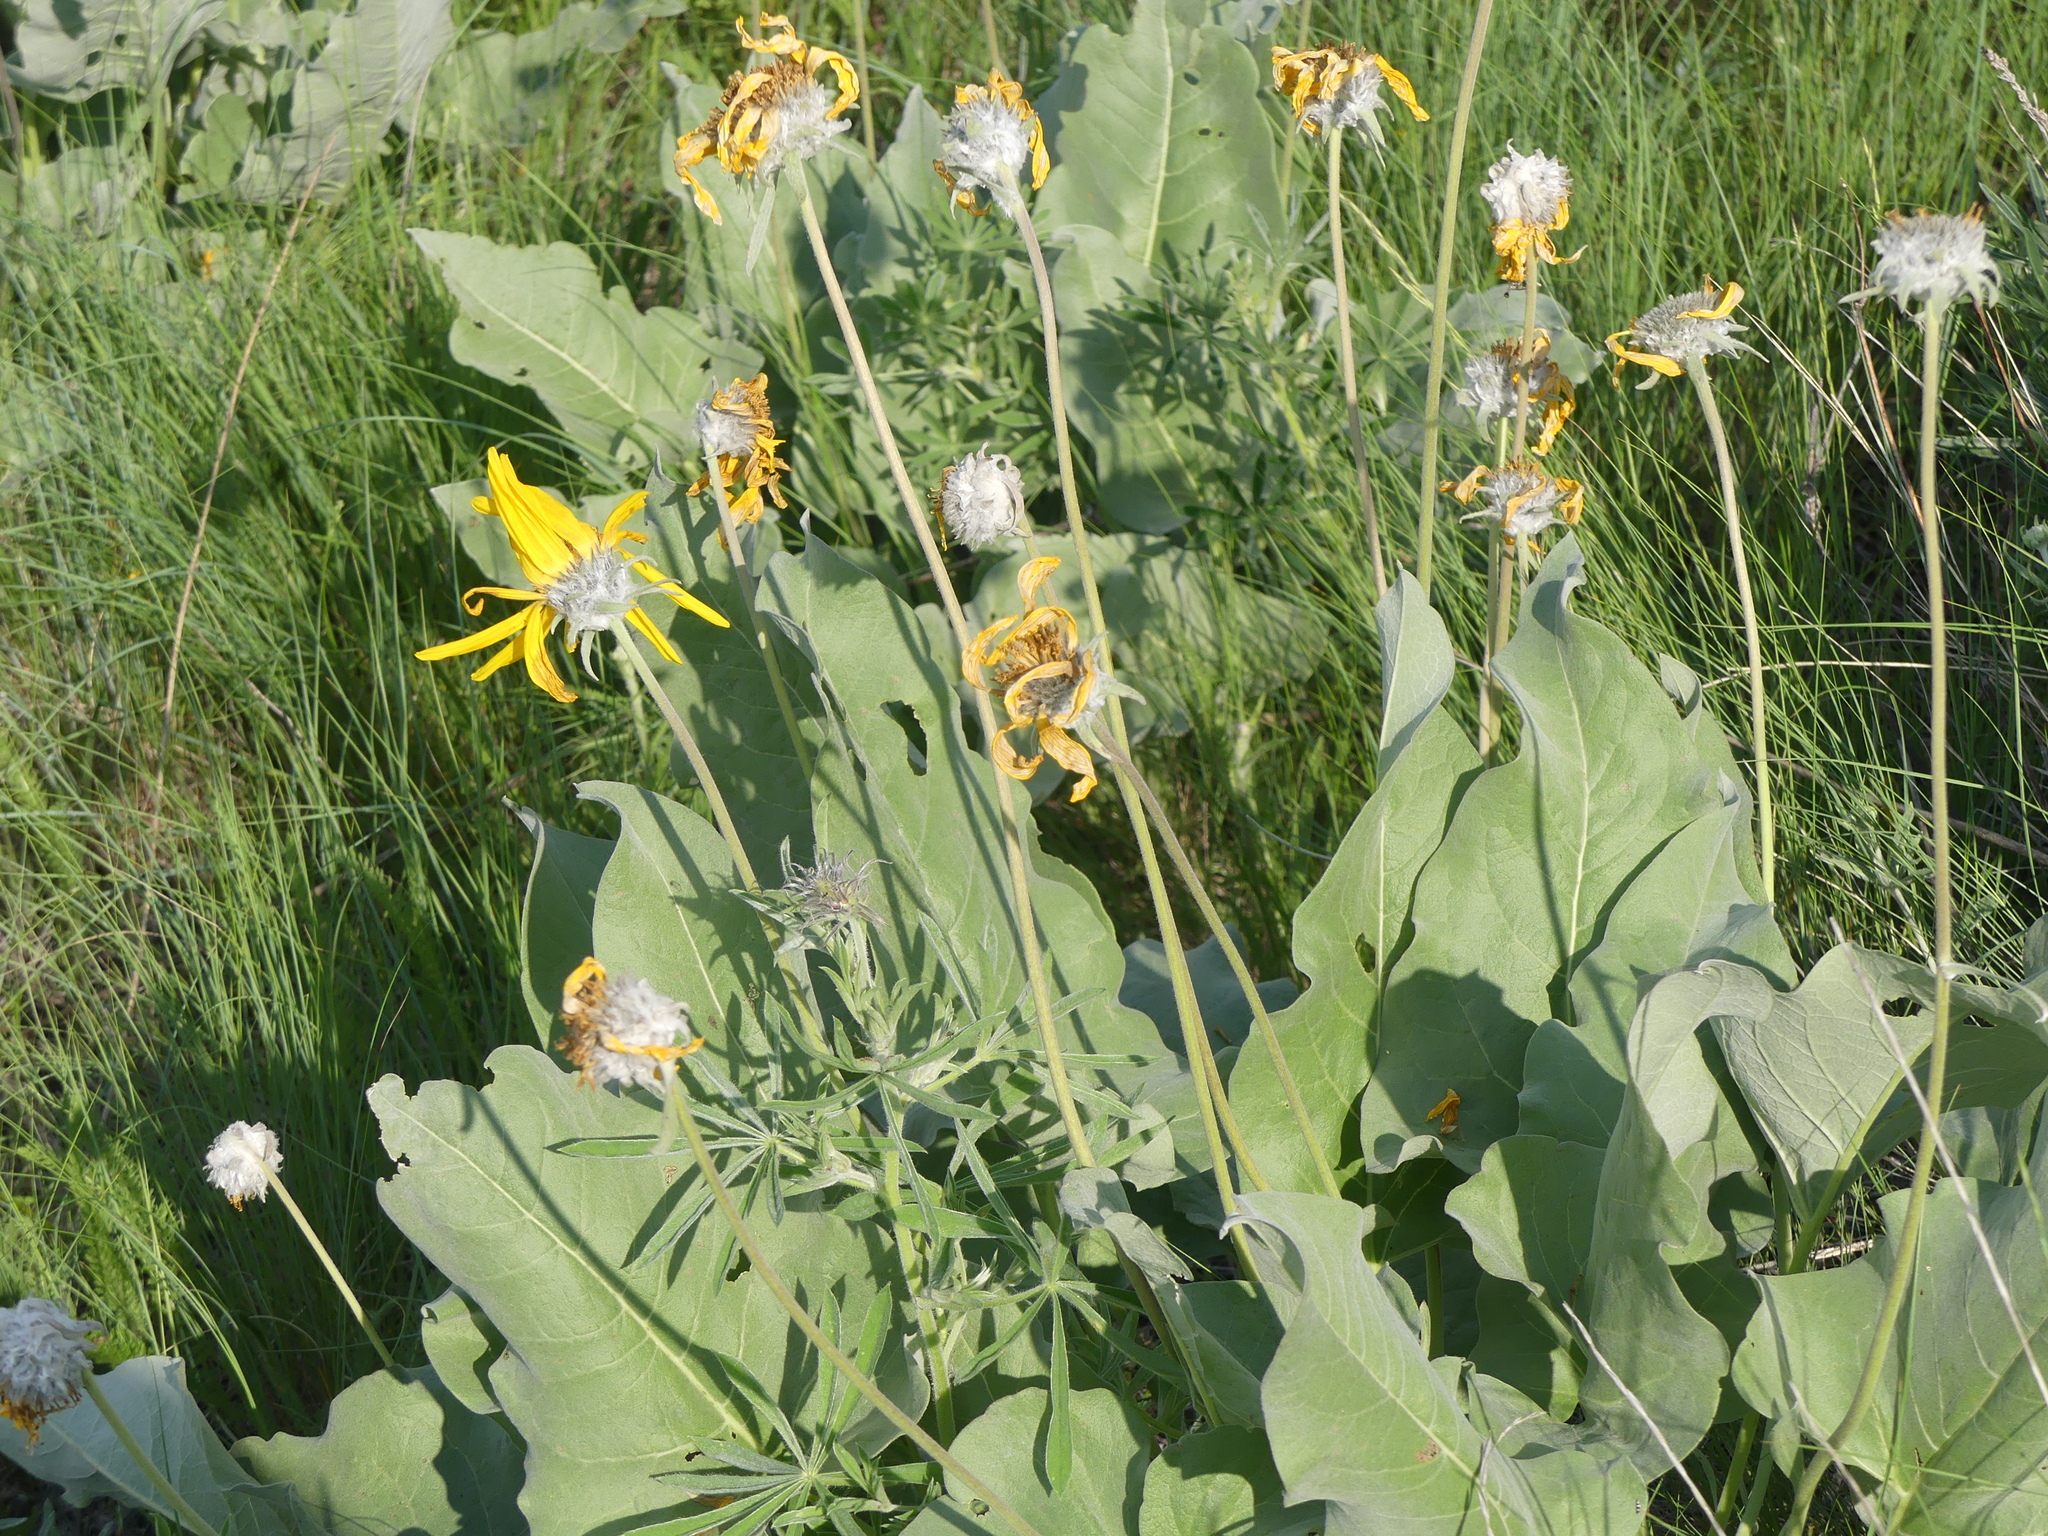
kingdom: Plantae
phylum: Tracheophyta
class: Magnoliopsida
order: Asterales
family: Asteraceae
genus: Wyethia
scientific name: Wyethia sagittata
